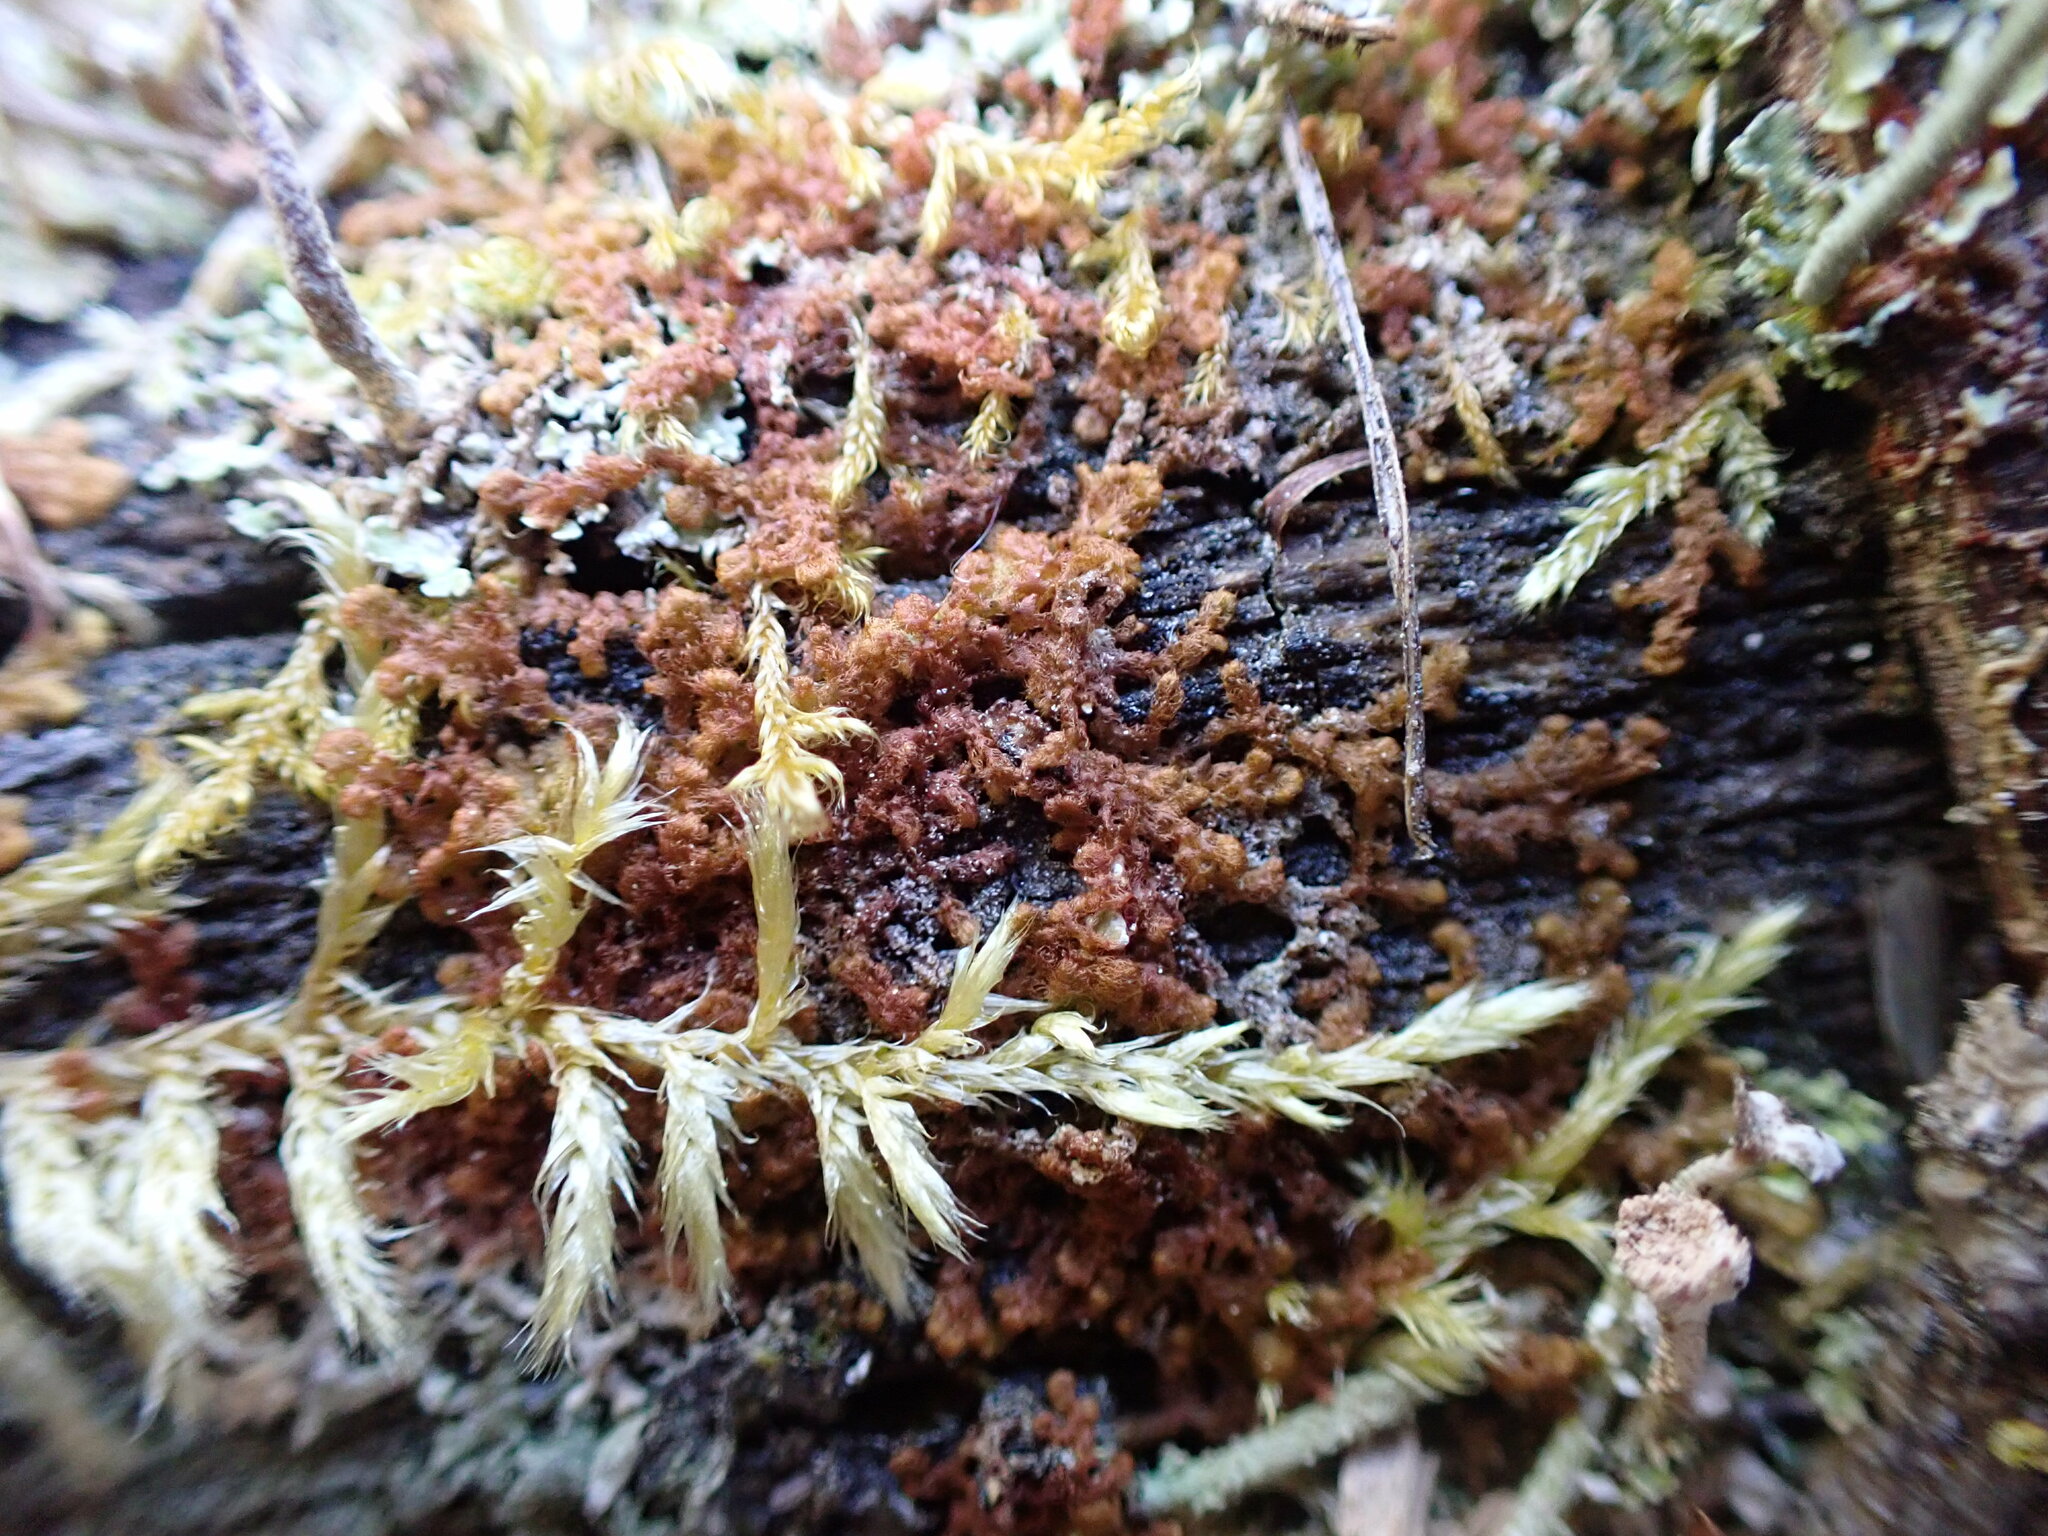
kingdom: Plantae
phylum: Marchantiophyta
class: Jungermanniopsida
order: Ptilidiales
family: Ptilidiaceae
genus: Ptilidium
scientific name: Ptilidium pulcherrimum
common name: Tree fringewort
